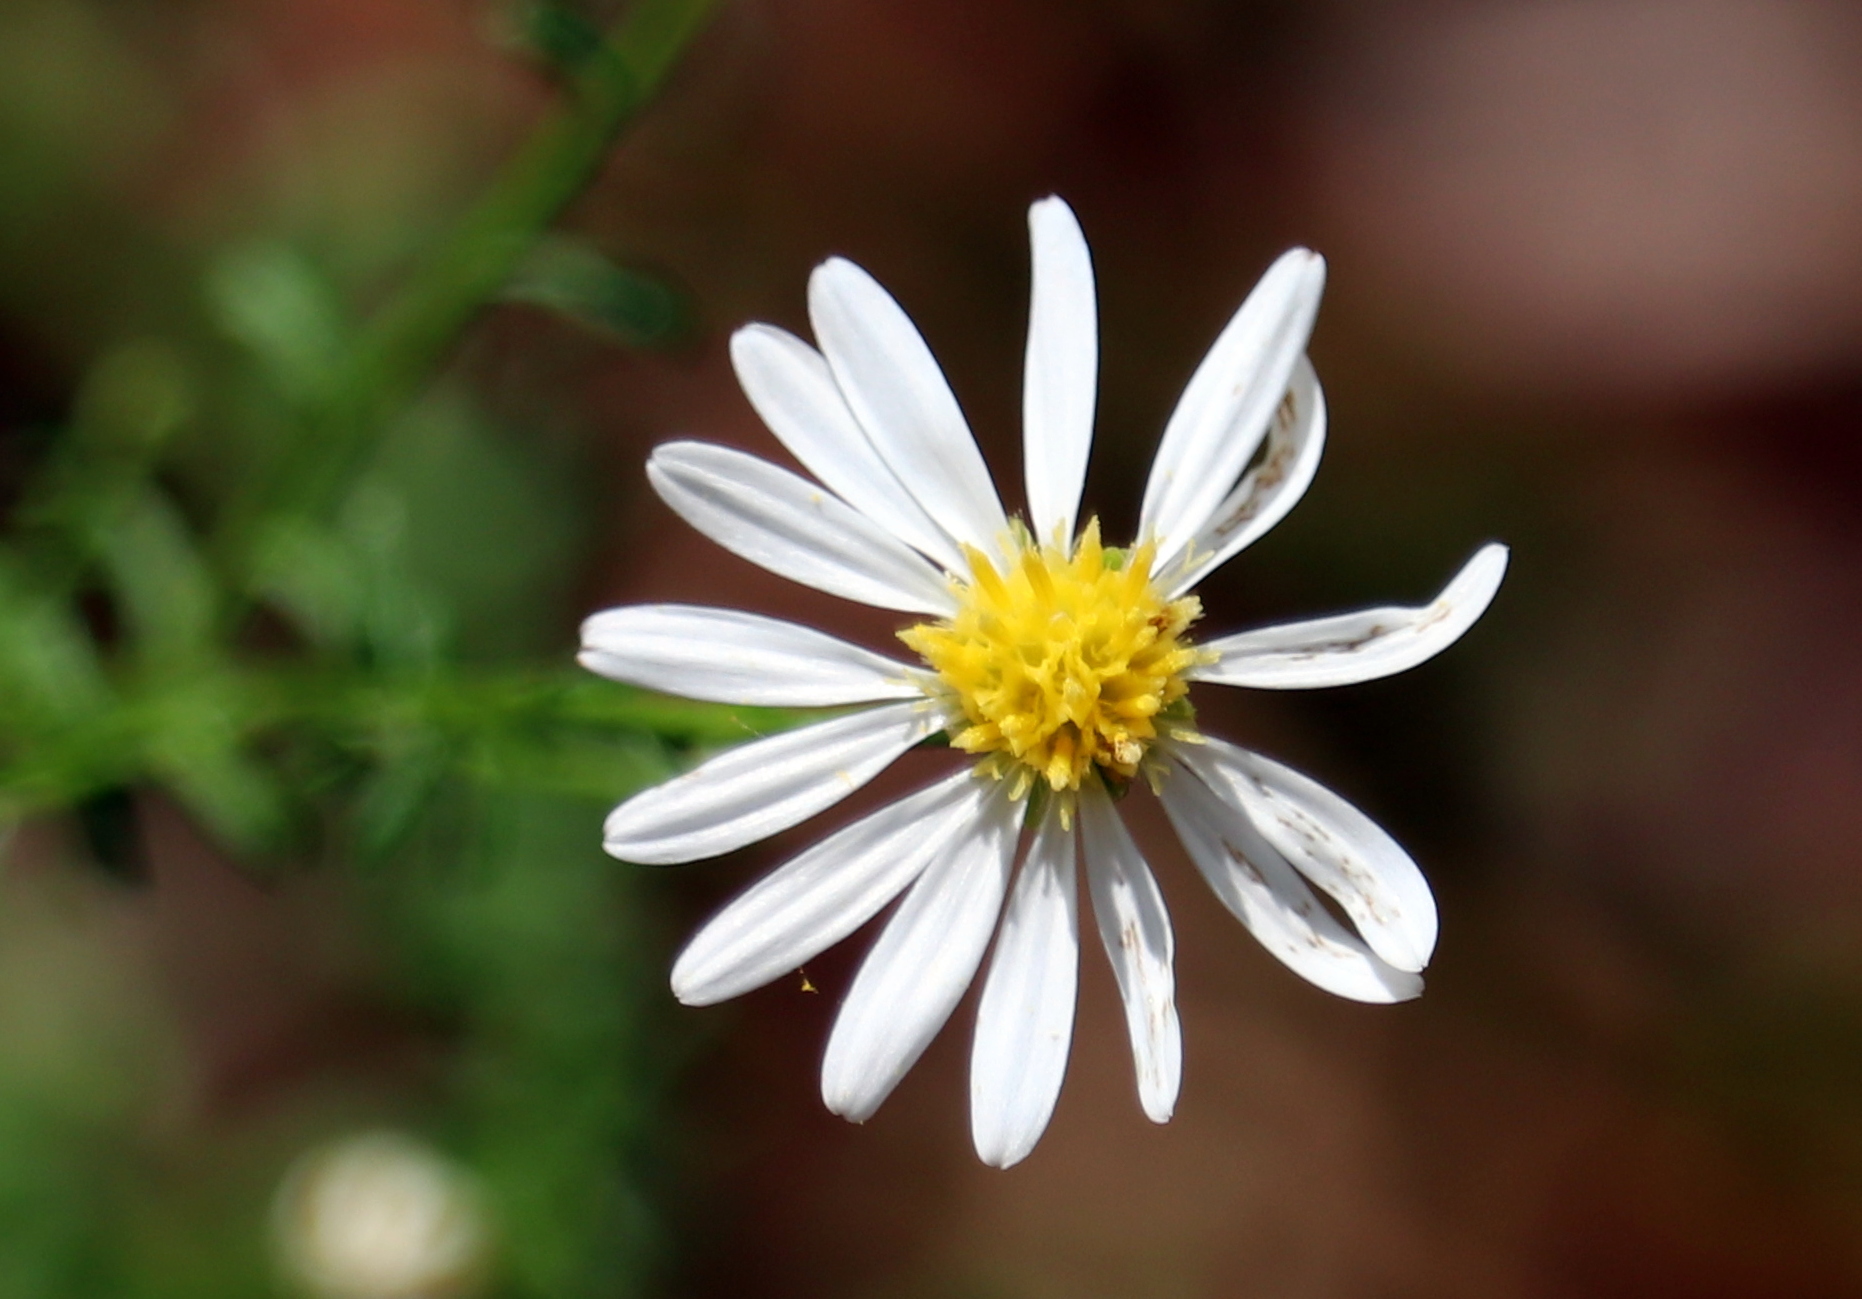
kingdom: Plantae
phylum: Tracheophyta
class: Magnoliopsida
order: Asterales
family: Asteraceae
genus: Symphyotrichum
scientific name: Symphyotrichum dumosum
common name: Bushy aster
